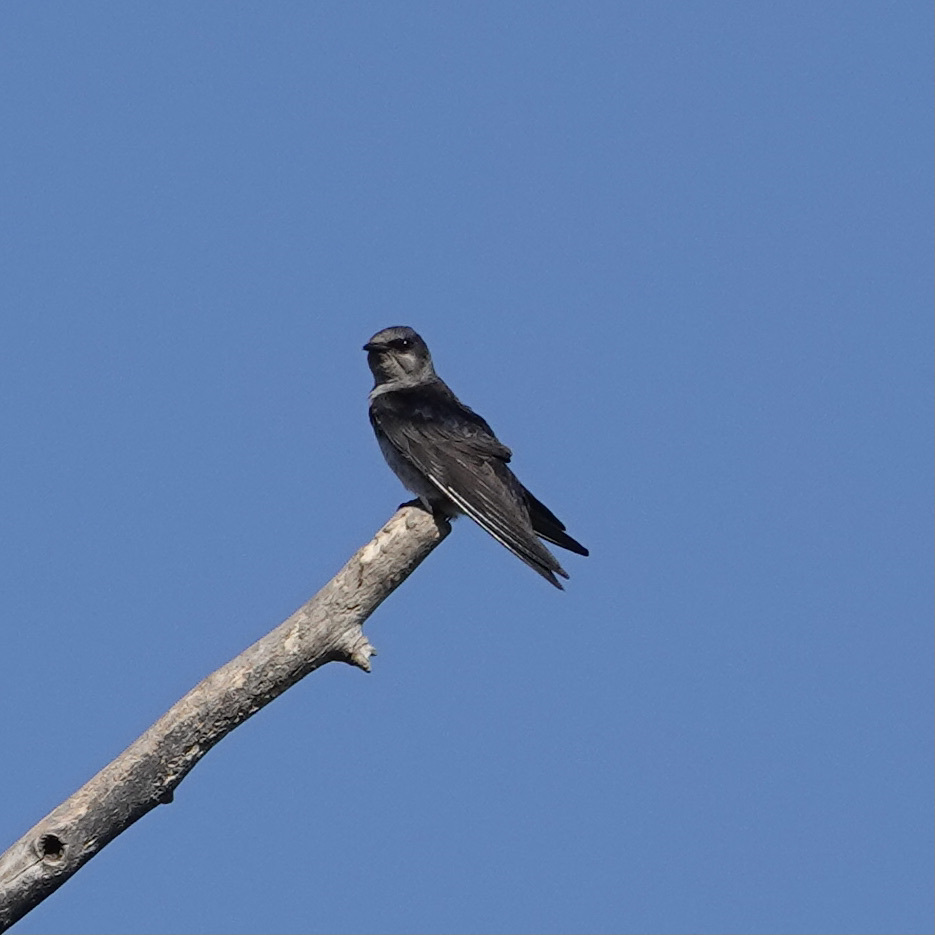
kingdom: Animalia
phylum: Chordata
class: Aves
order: Passeriformes
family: Hirundinidae
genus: Progne
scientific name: Progne subis
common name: Purple martin
